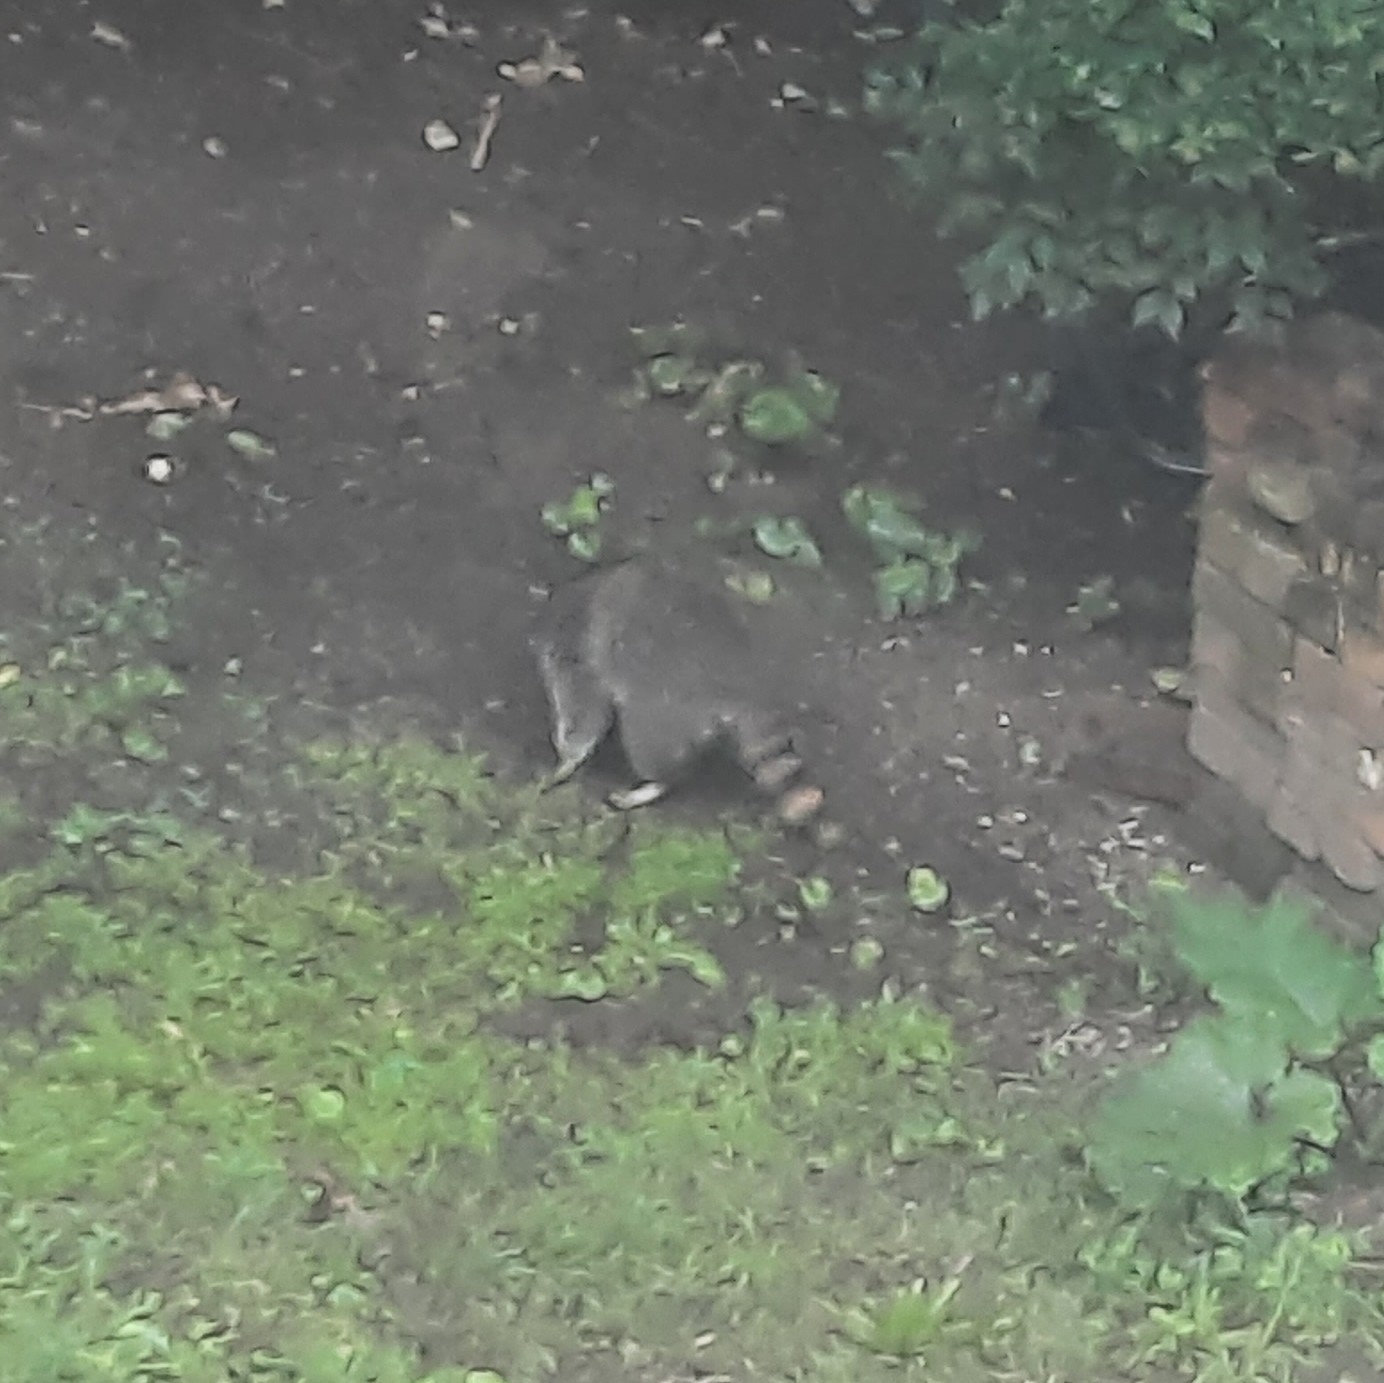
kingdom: Animalia
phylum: Chordata
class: Mammalia
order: Carnivora
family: Procyonidae
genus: Procyon
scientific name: Procyon lotor
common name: Raccoon
